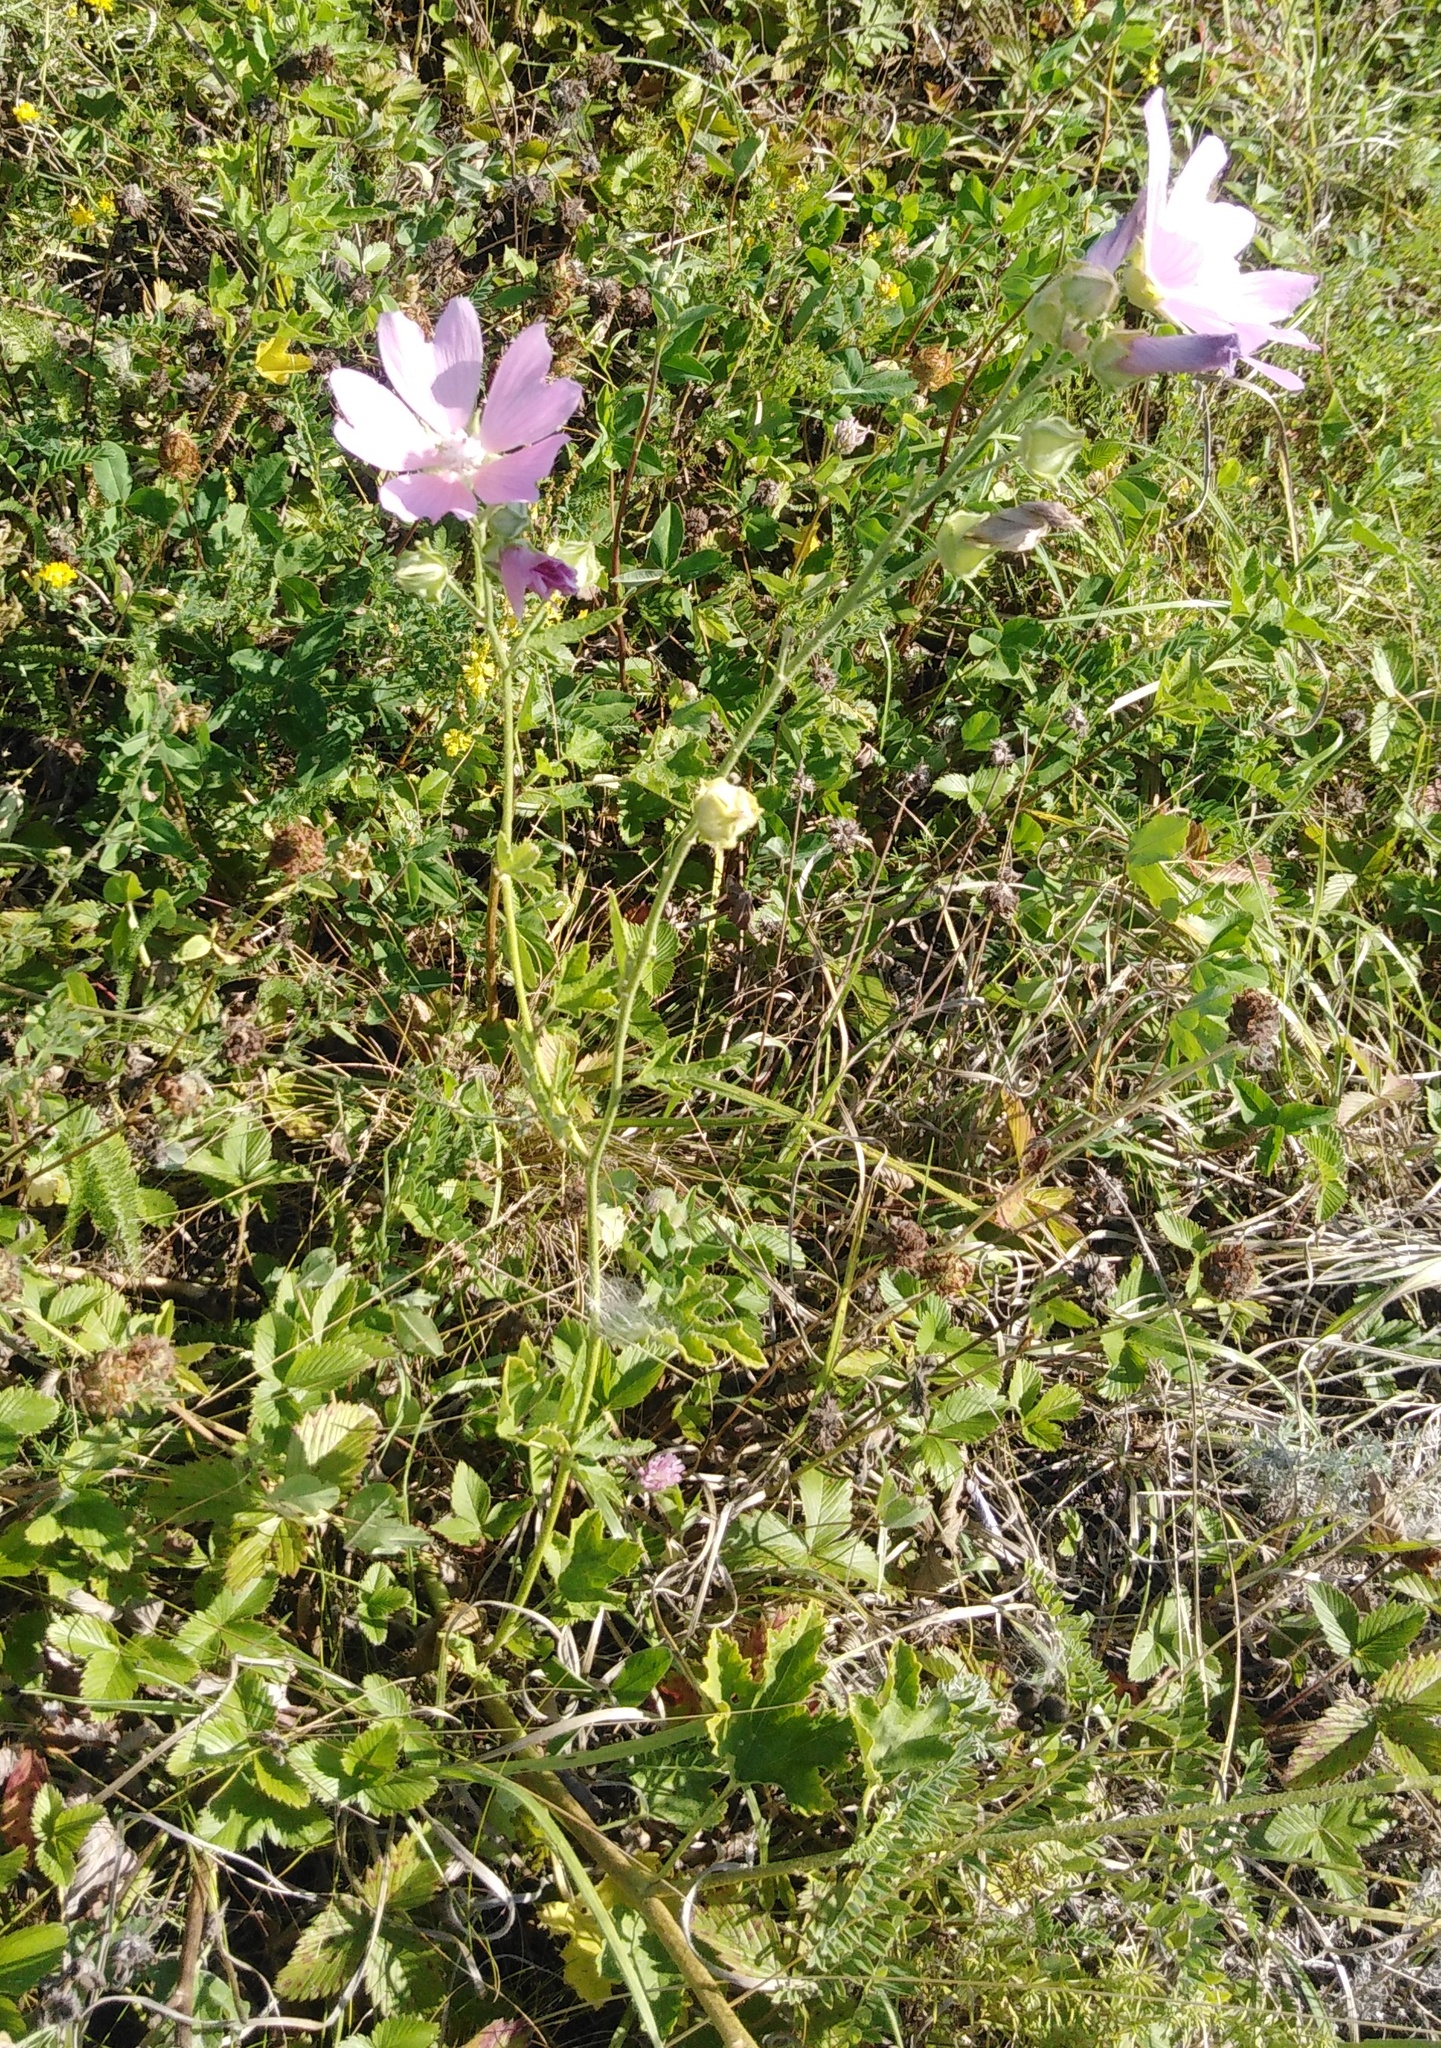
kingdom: Plantae
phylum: Tracheophyta
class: Magnoliopsida
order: Malvales
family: Malvaceae
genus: Malva
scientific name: Malva thuringiaca
